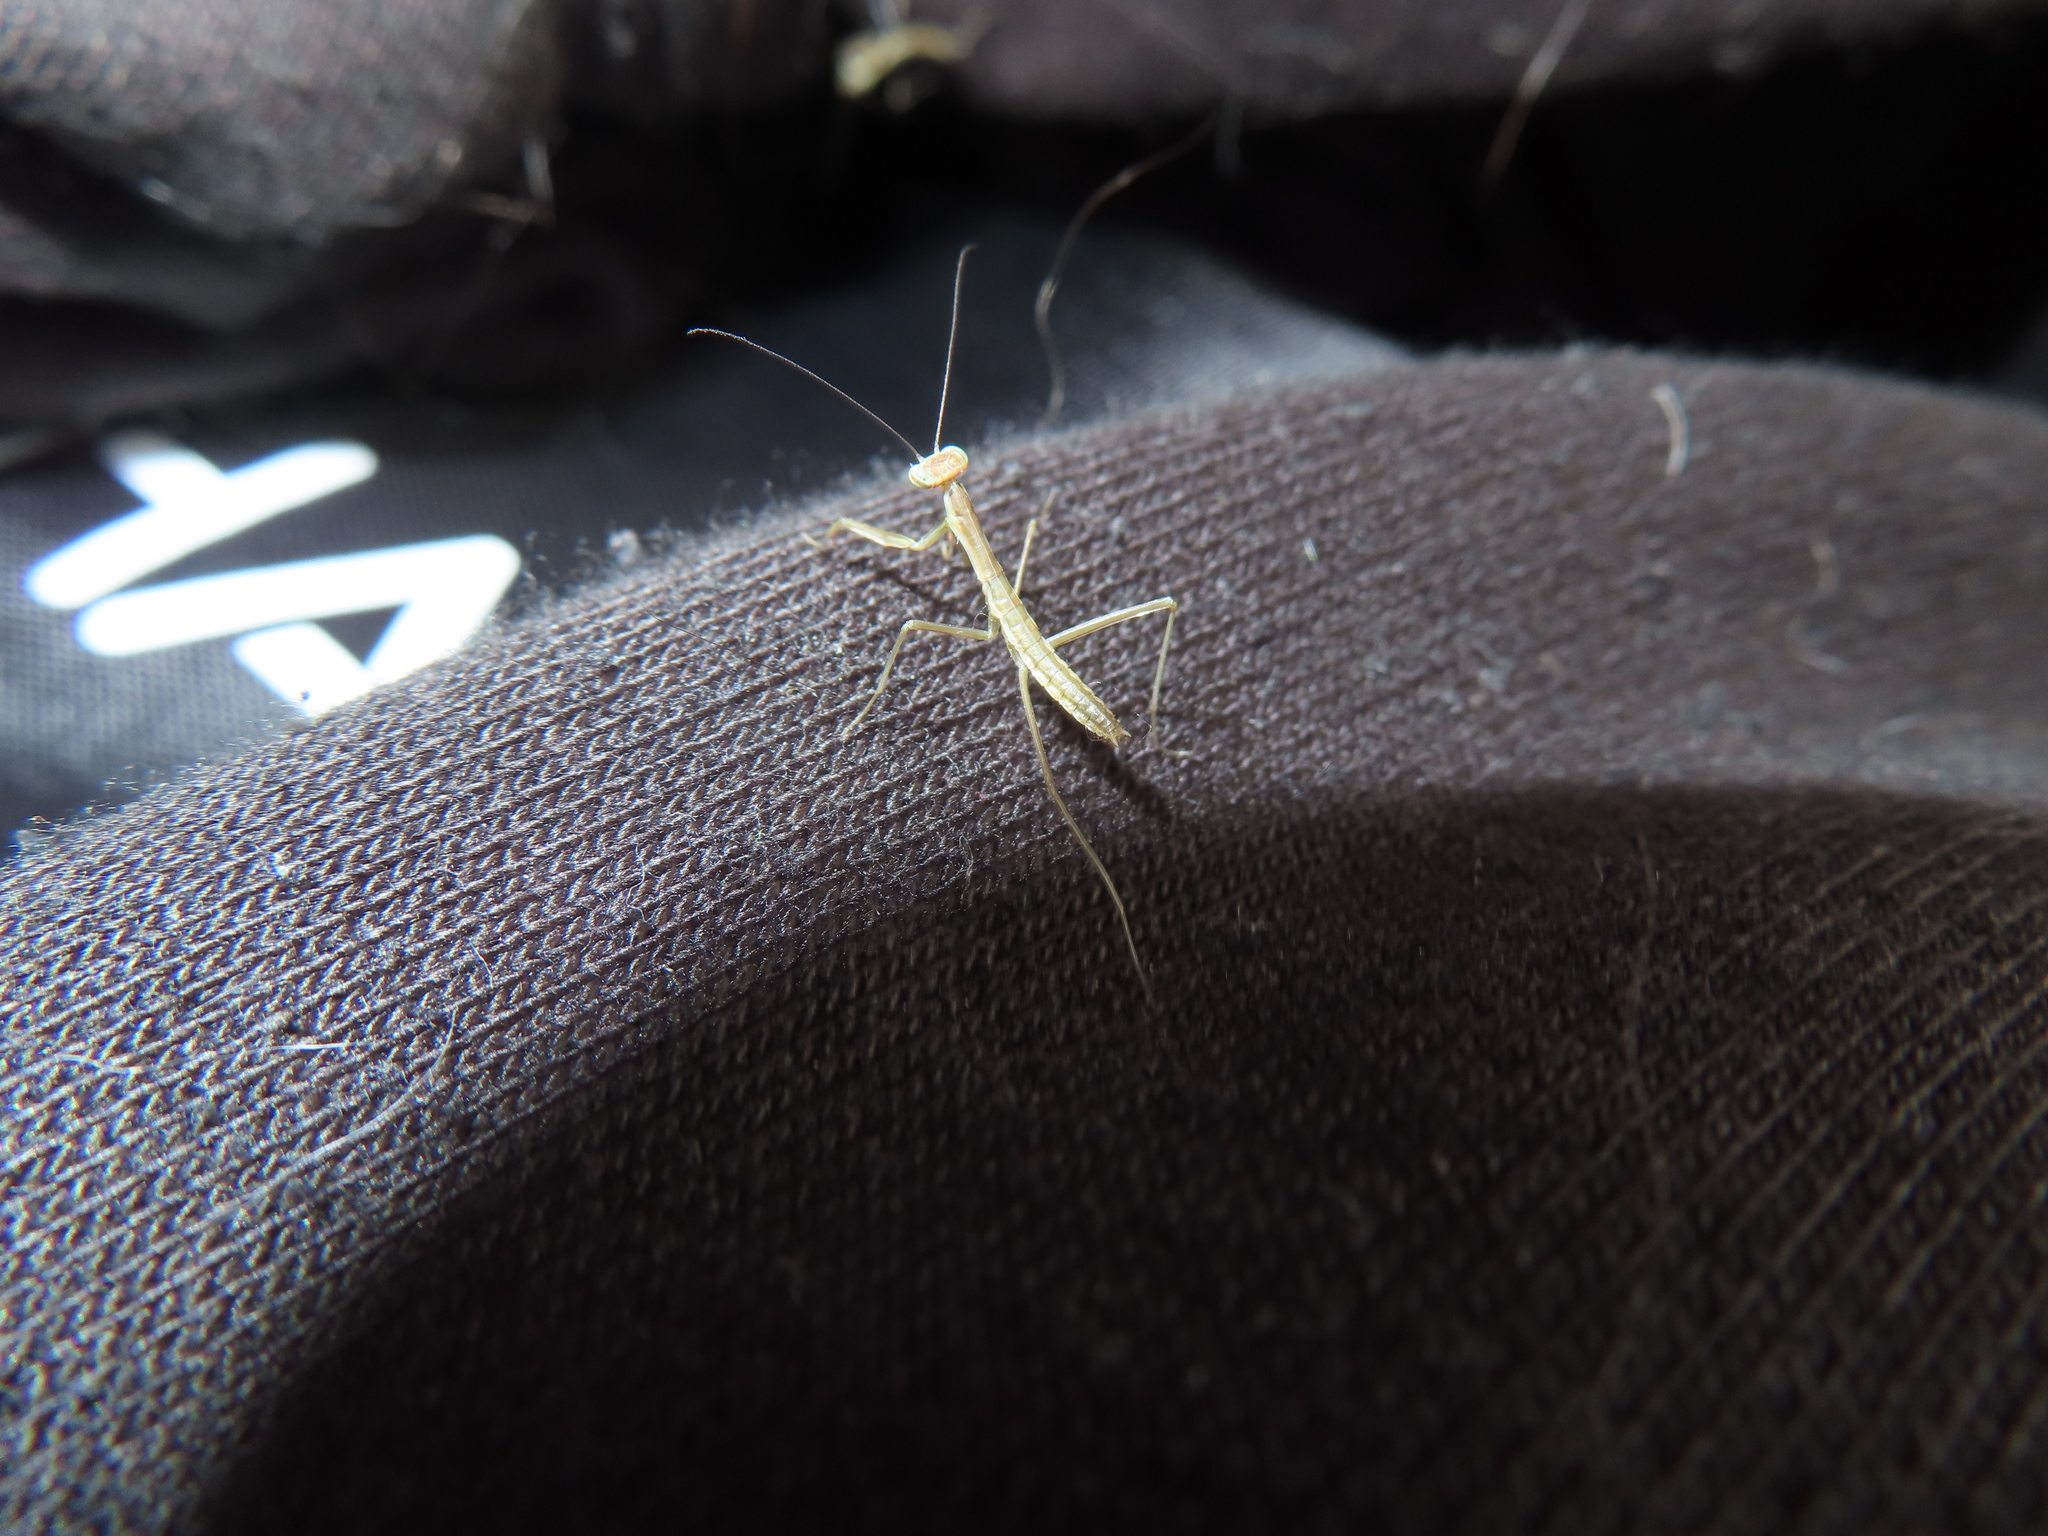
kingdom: Animalia
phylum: Arthropoda
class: Insecta
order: Mantodea
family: Mantidae
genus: Tenodera
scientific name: Tenodera sinensis
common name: Chinese mantis
